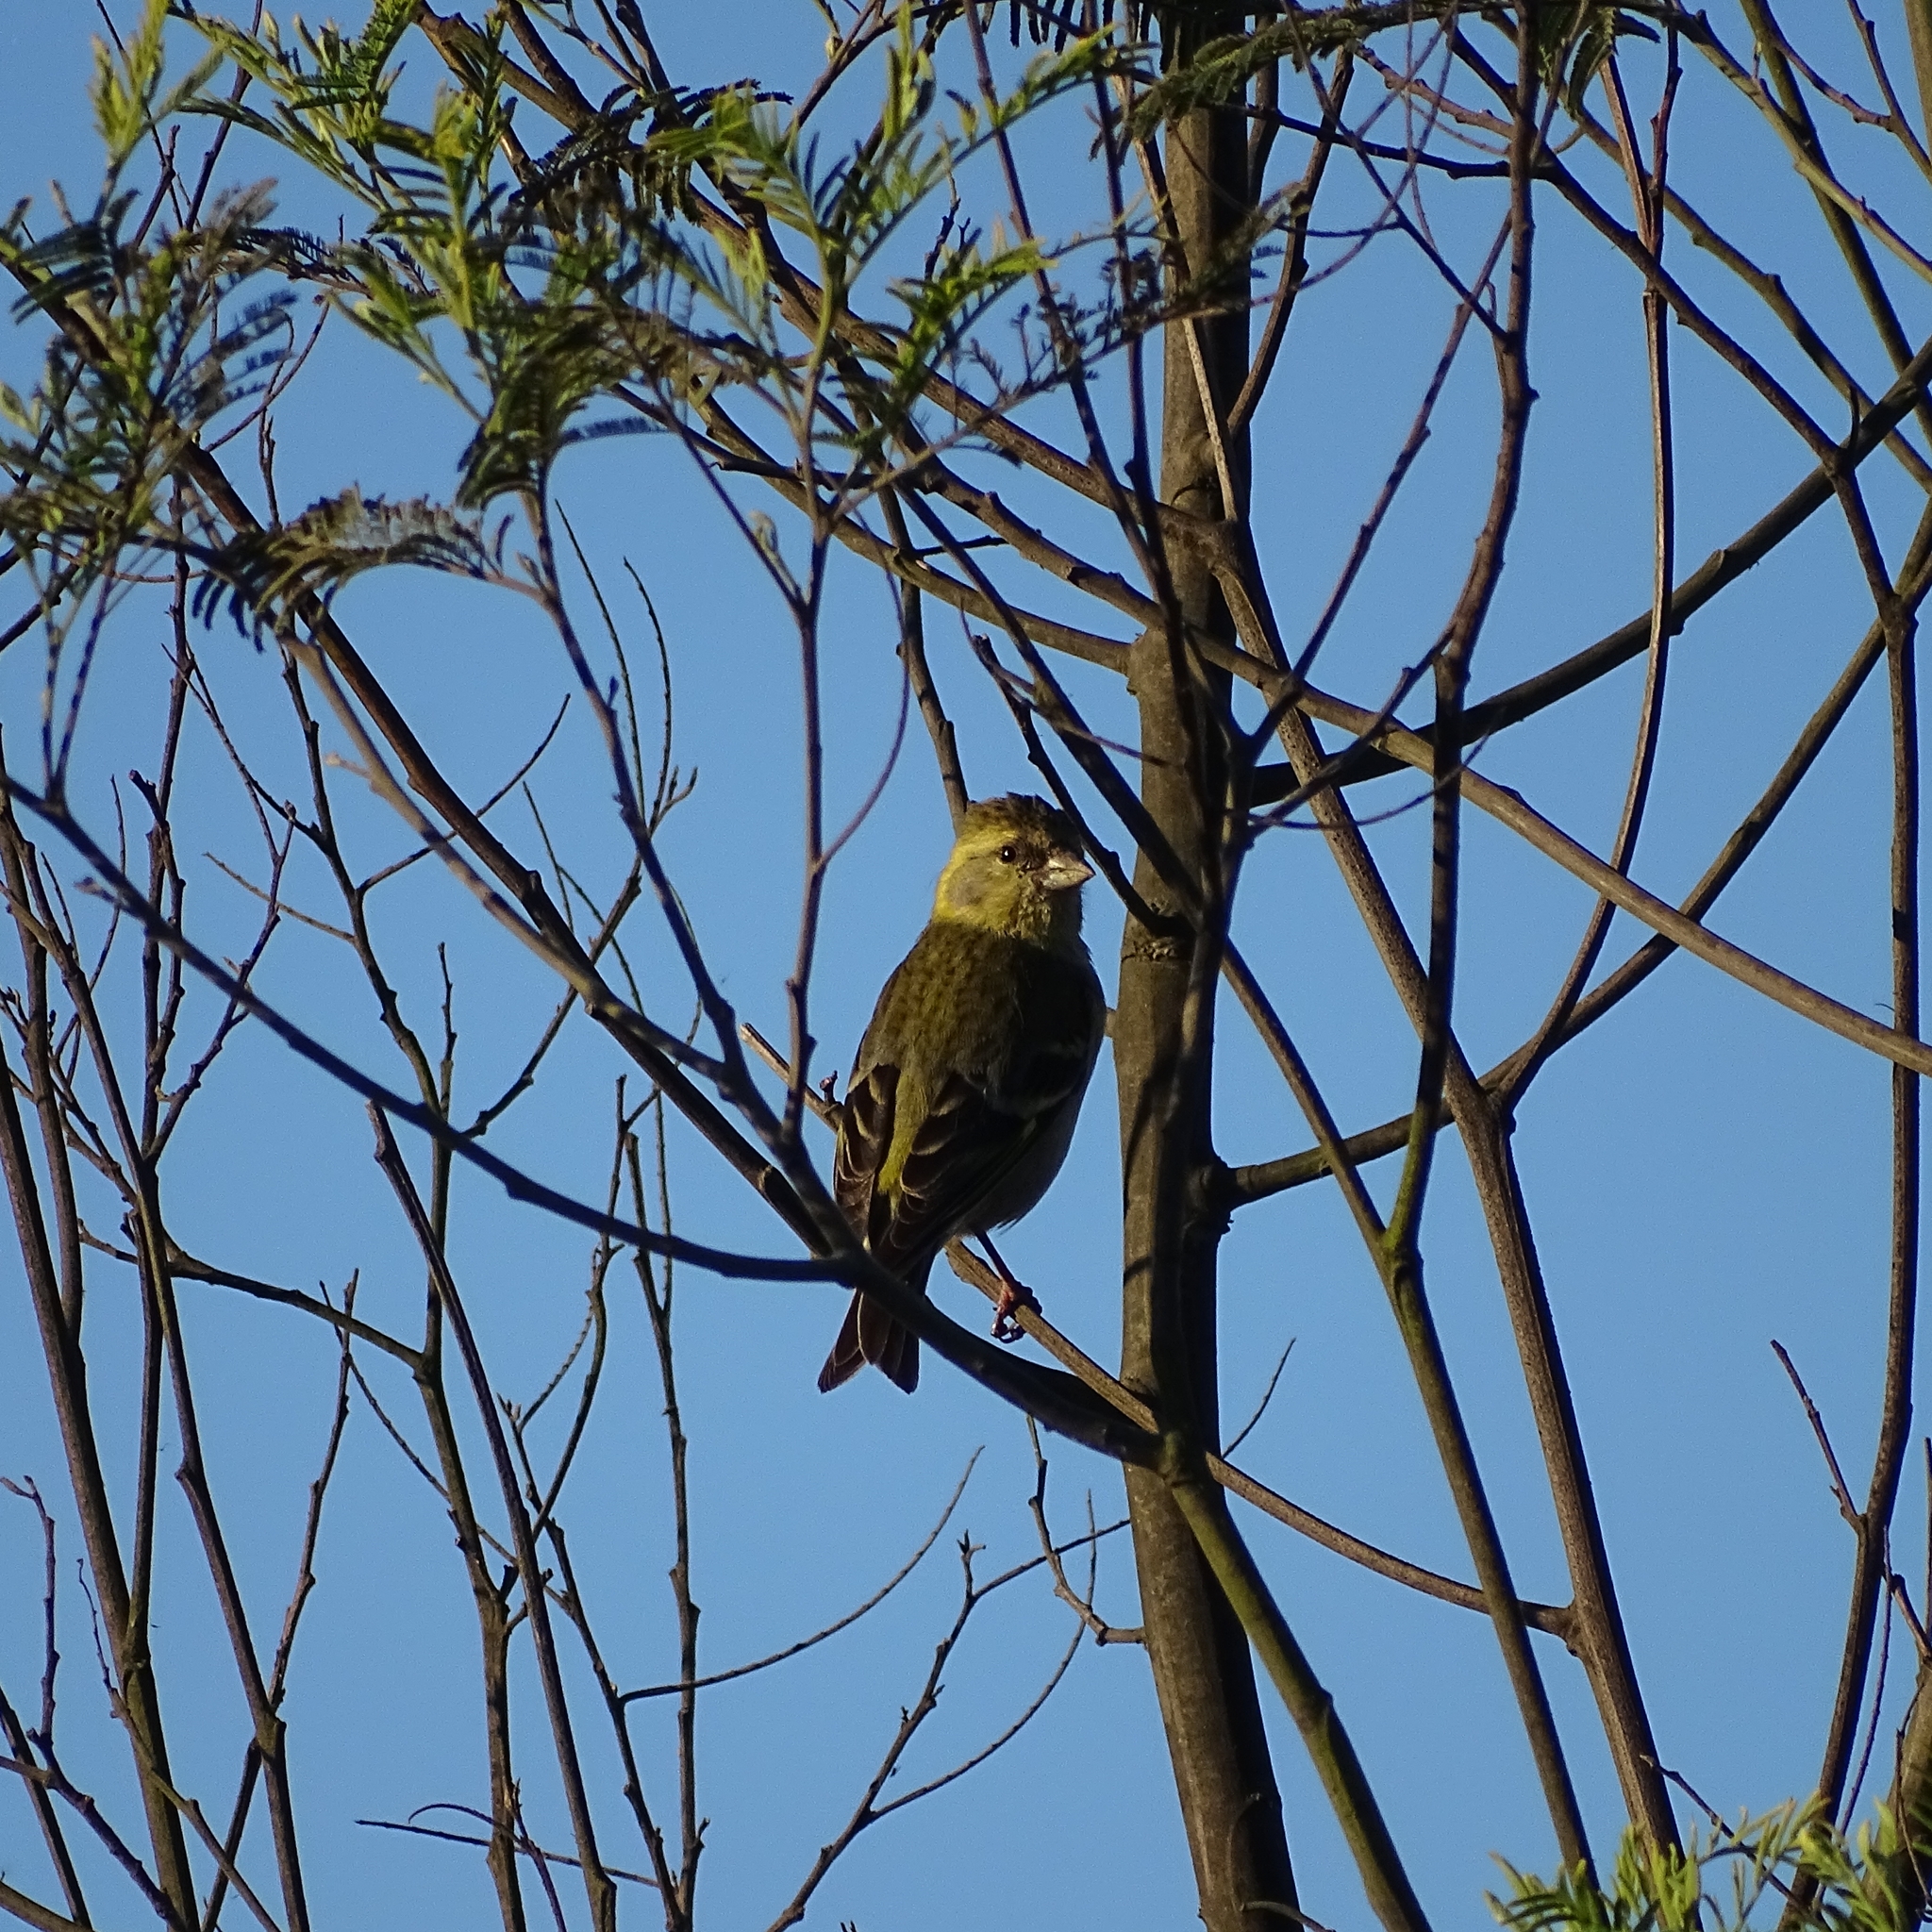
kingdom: Animalia
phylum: Chordata
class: Aves
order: Passeriformes
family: Fringillidae
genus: Spinus
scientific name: Spinus barbatus
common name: Black-chinned siskin
